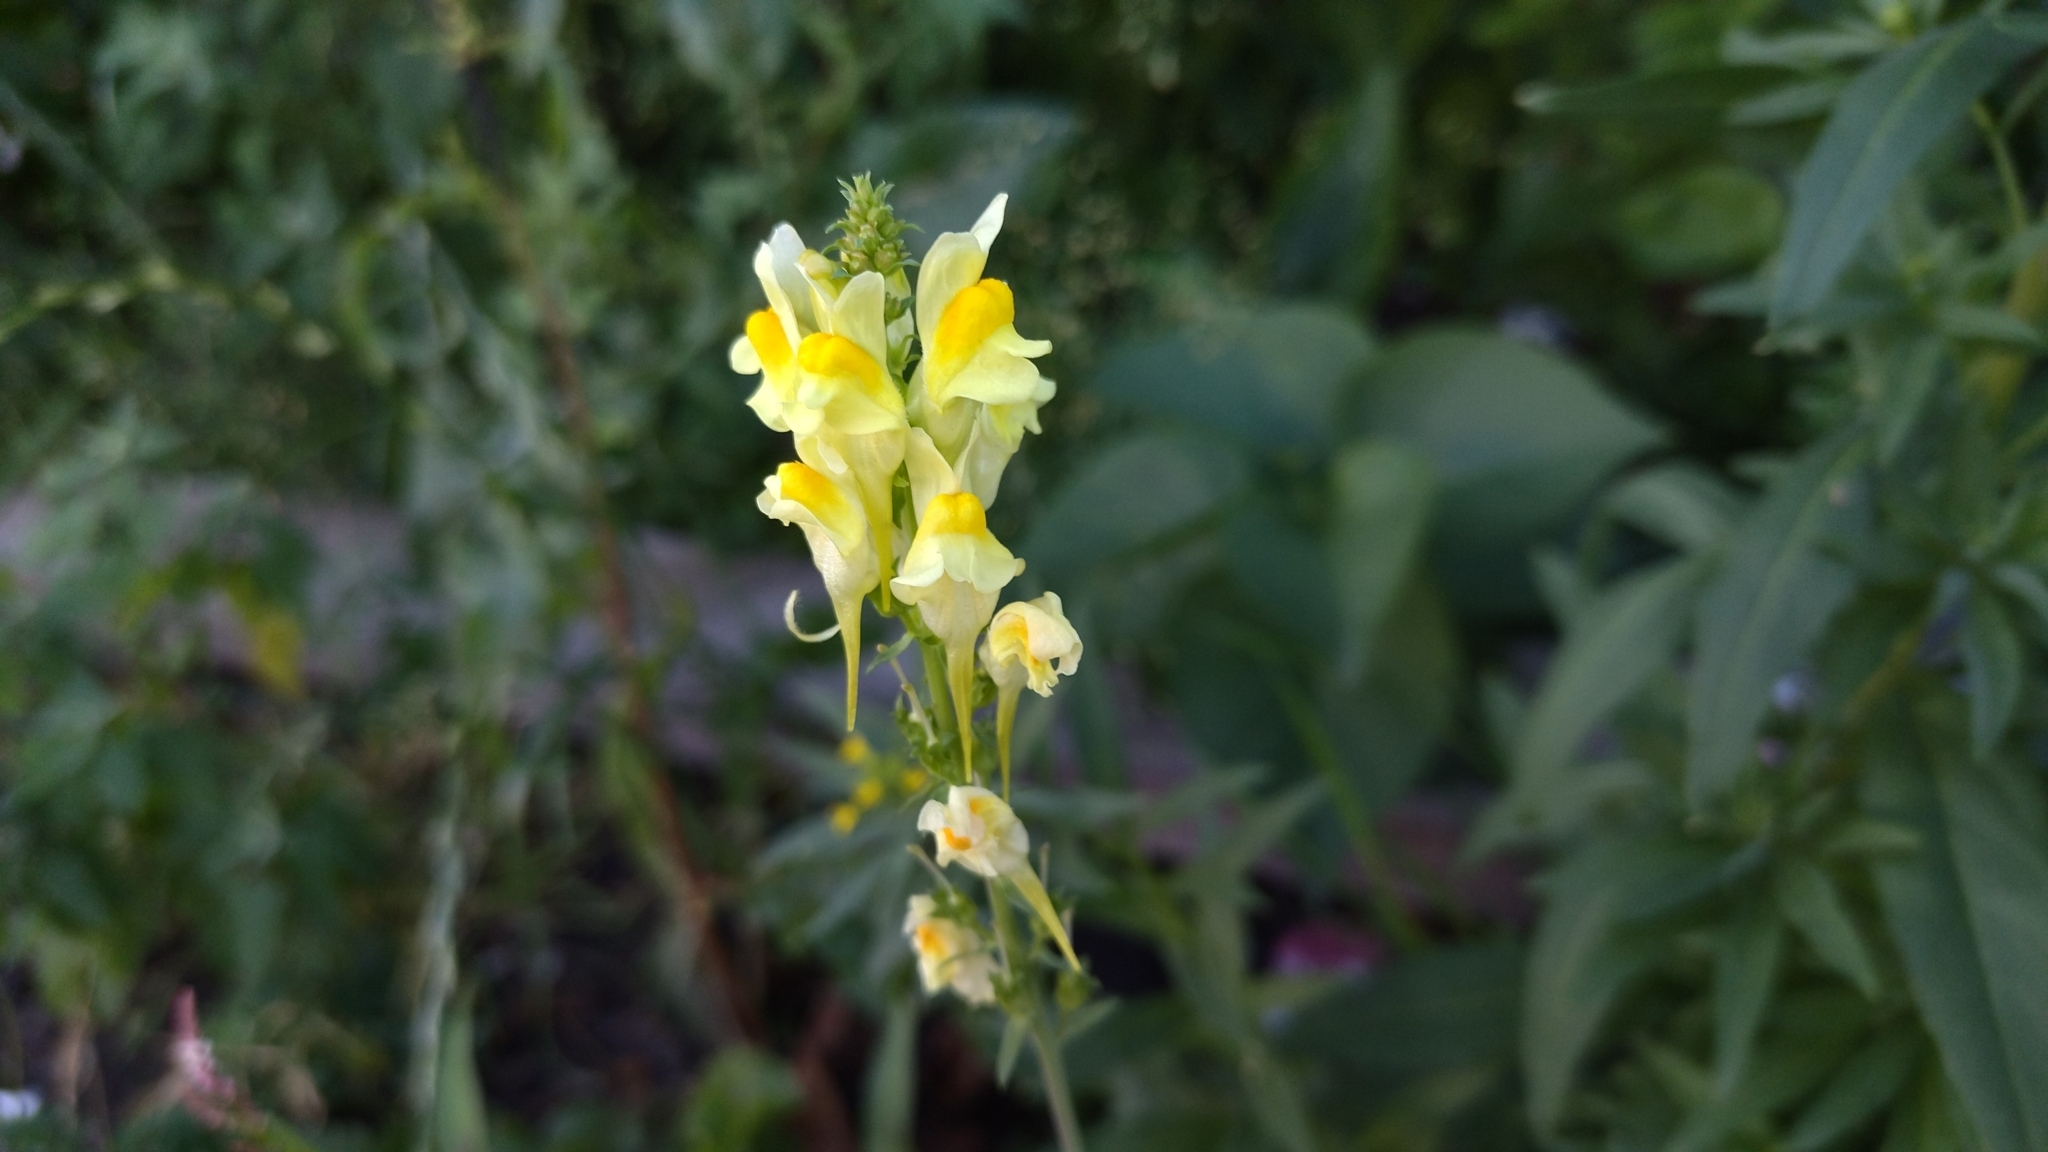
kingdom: Plantae
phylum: Tracheophyta
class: Magnoliopsida
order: Lamiales
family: Plantaginaceae
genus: Linaria
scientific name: Linaria vulgaris
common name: Butter and eggs
